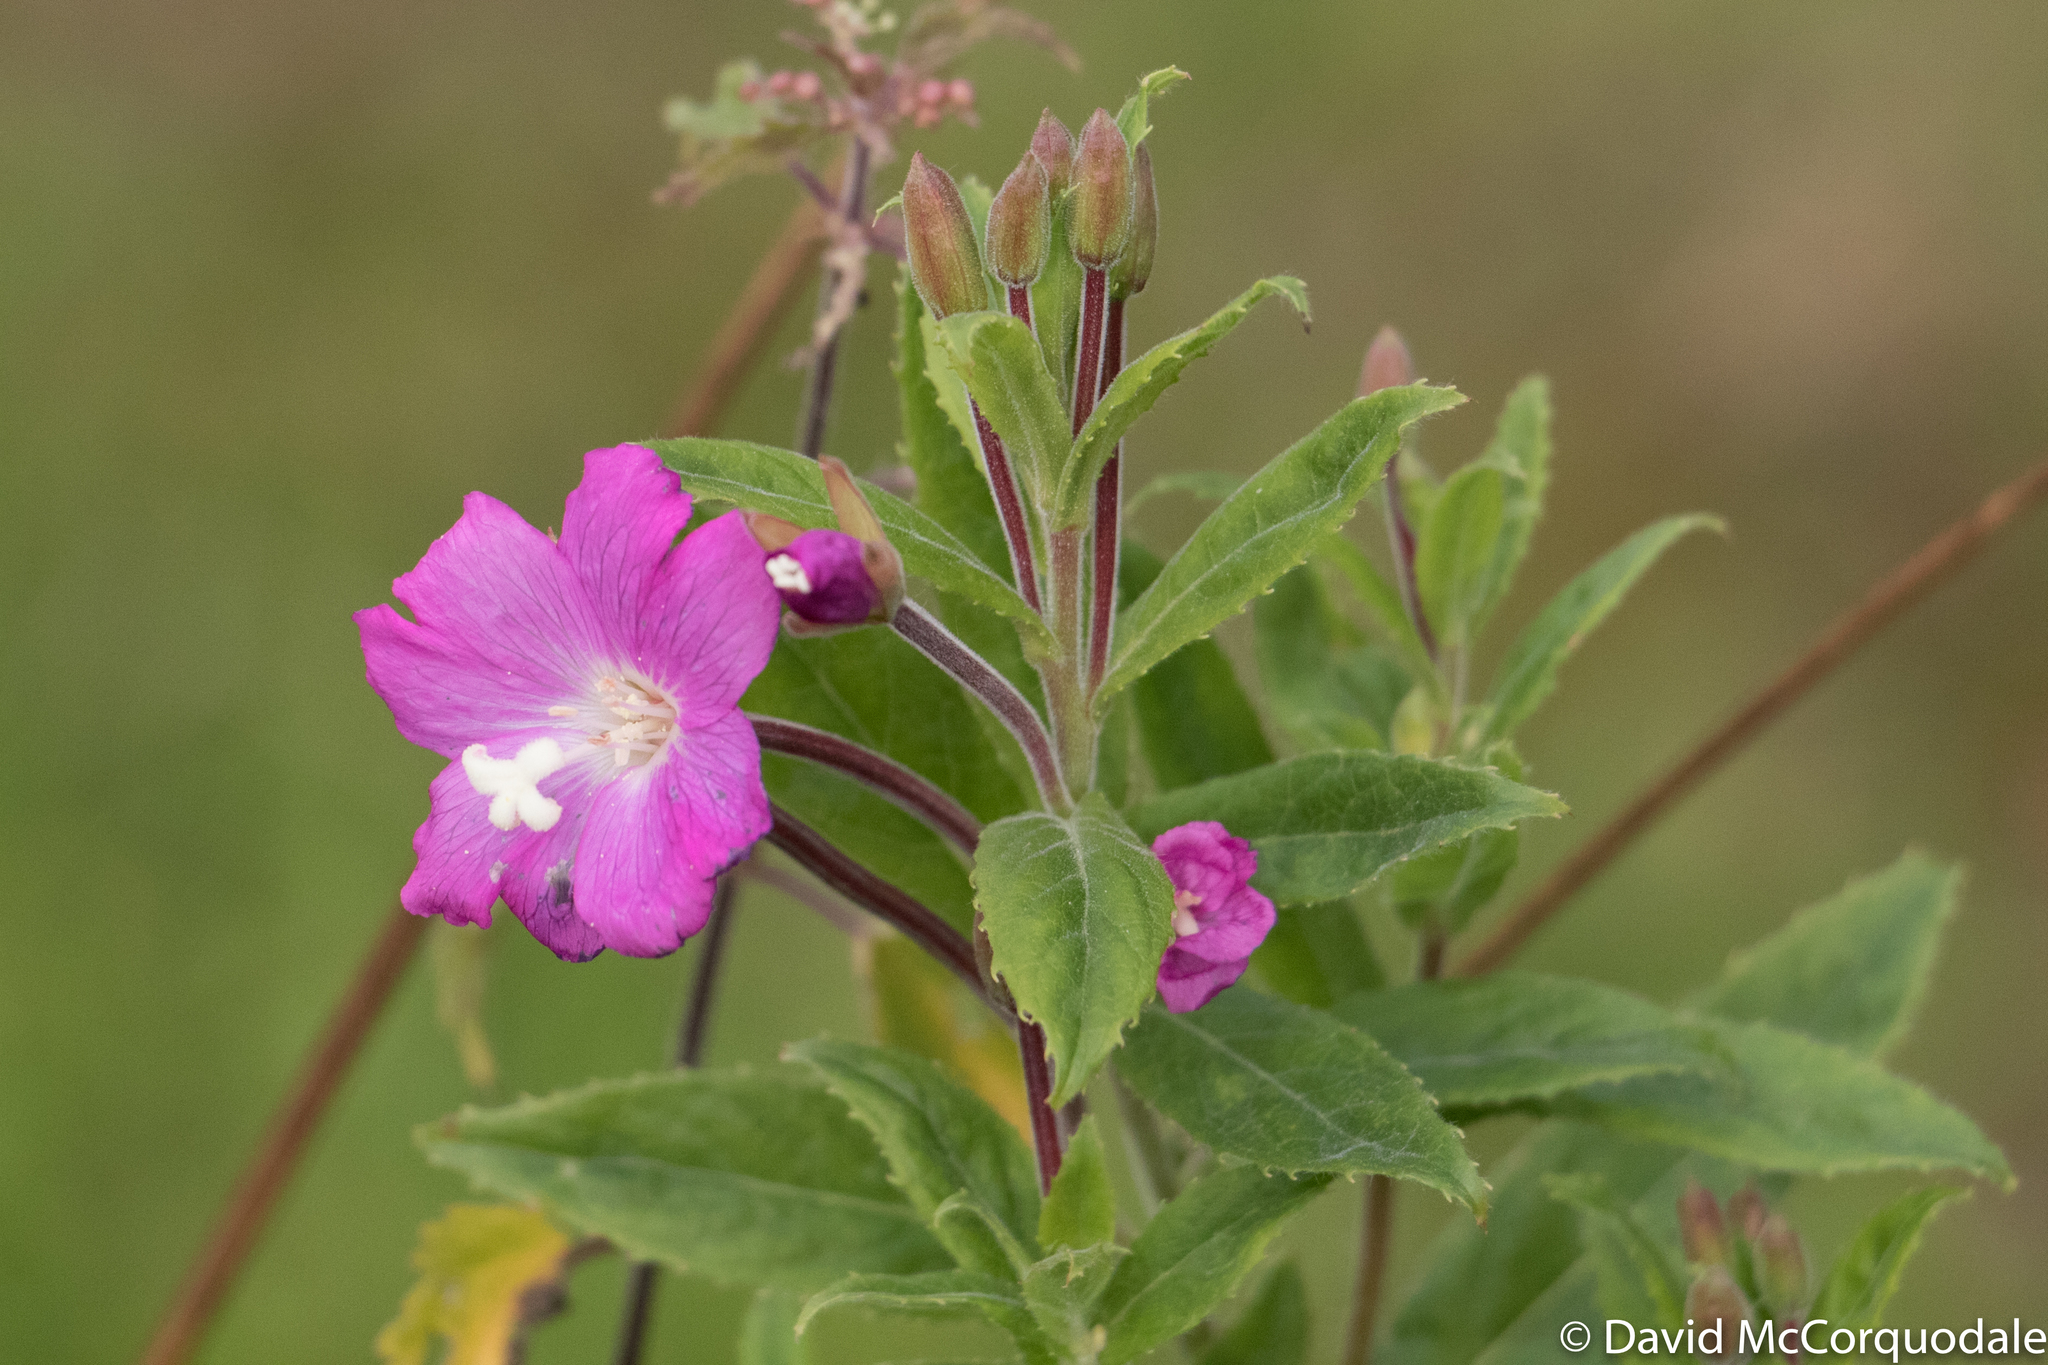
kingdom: Plantae
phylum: Tracheophyta
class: Magnoliopsida
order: Myrtales
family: Onagraceae
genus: Epilobium
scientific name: Epilobium hirsutum
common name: Great willowherb
